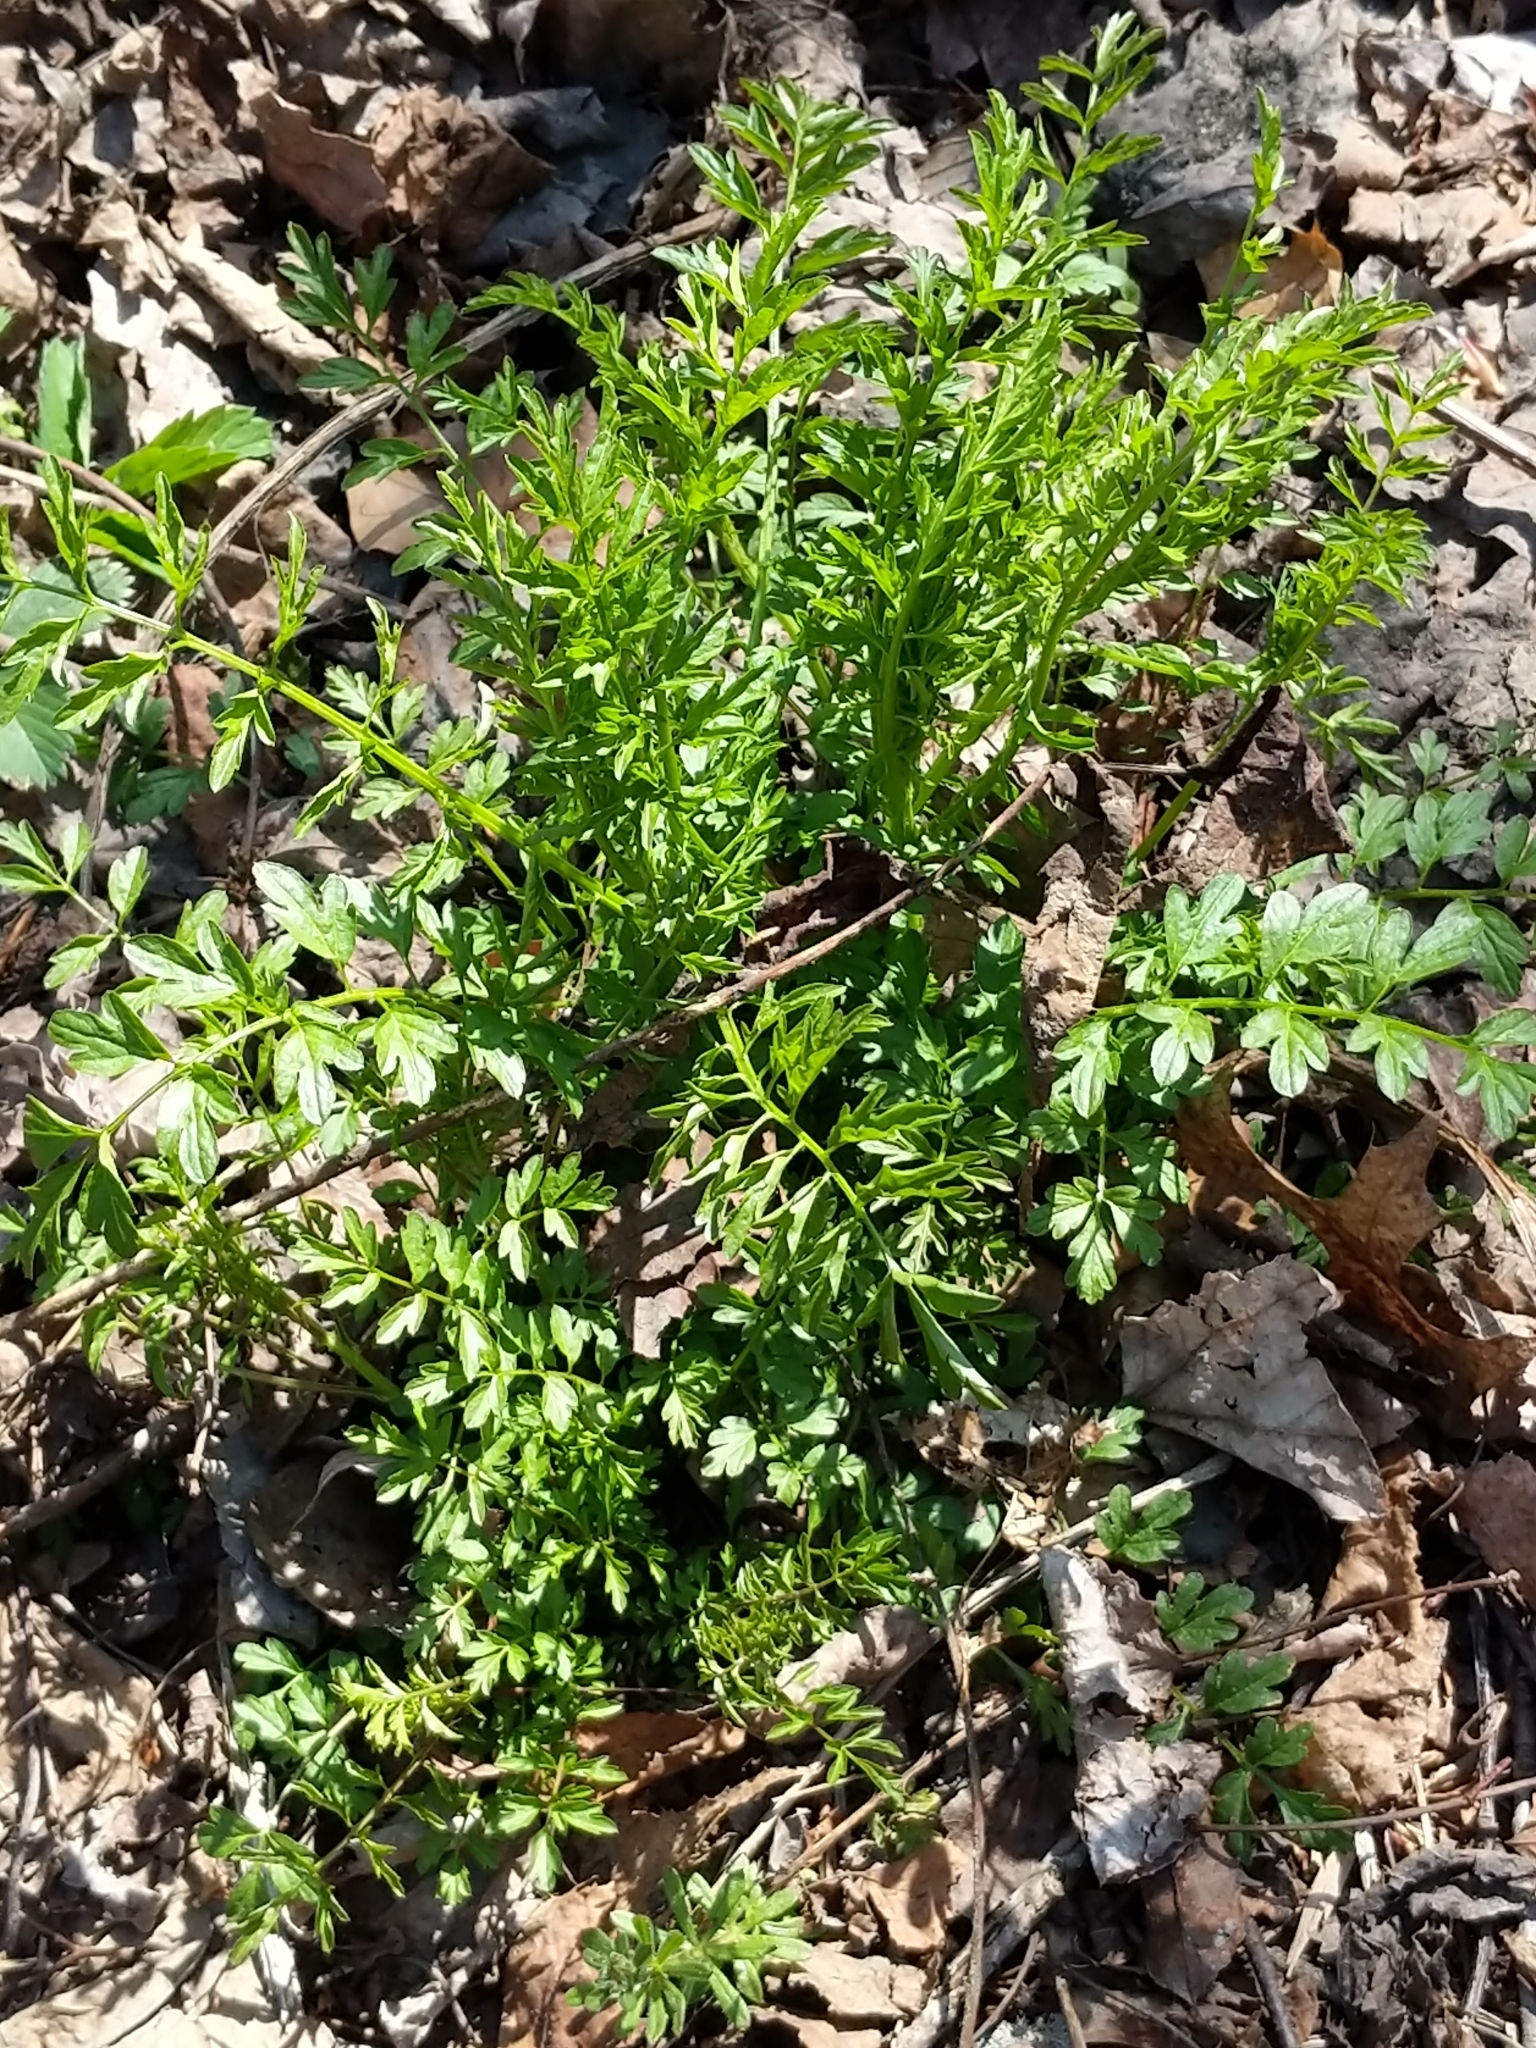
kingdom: Plantae
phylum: Tracheophyta
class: Magnoliopsida
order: Brassicales
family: Brassicaceae
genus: Cardamine
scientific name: Cardamine impatiens
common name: Narrow-leaved bitter-cress
